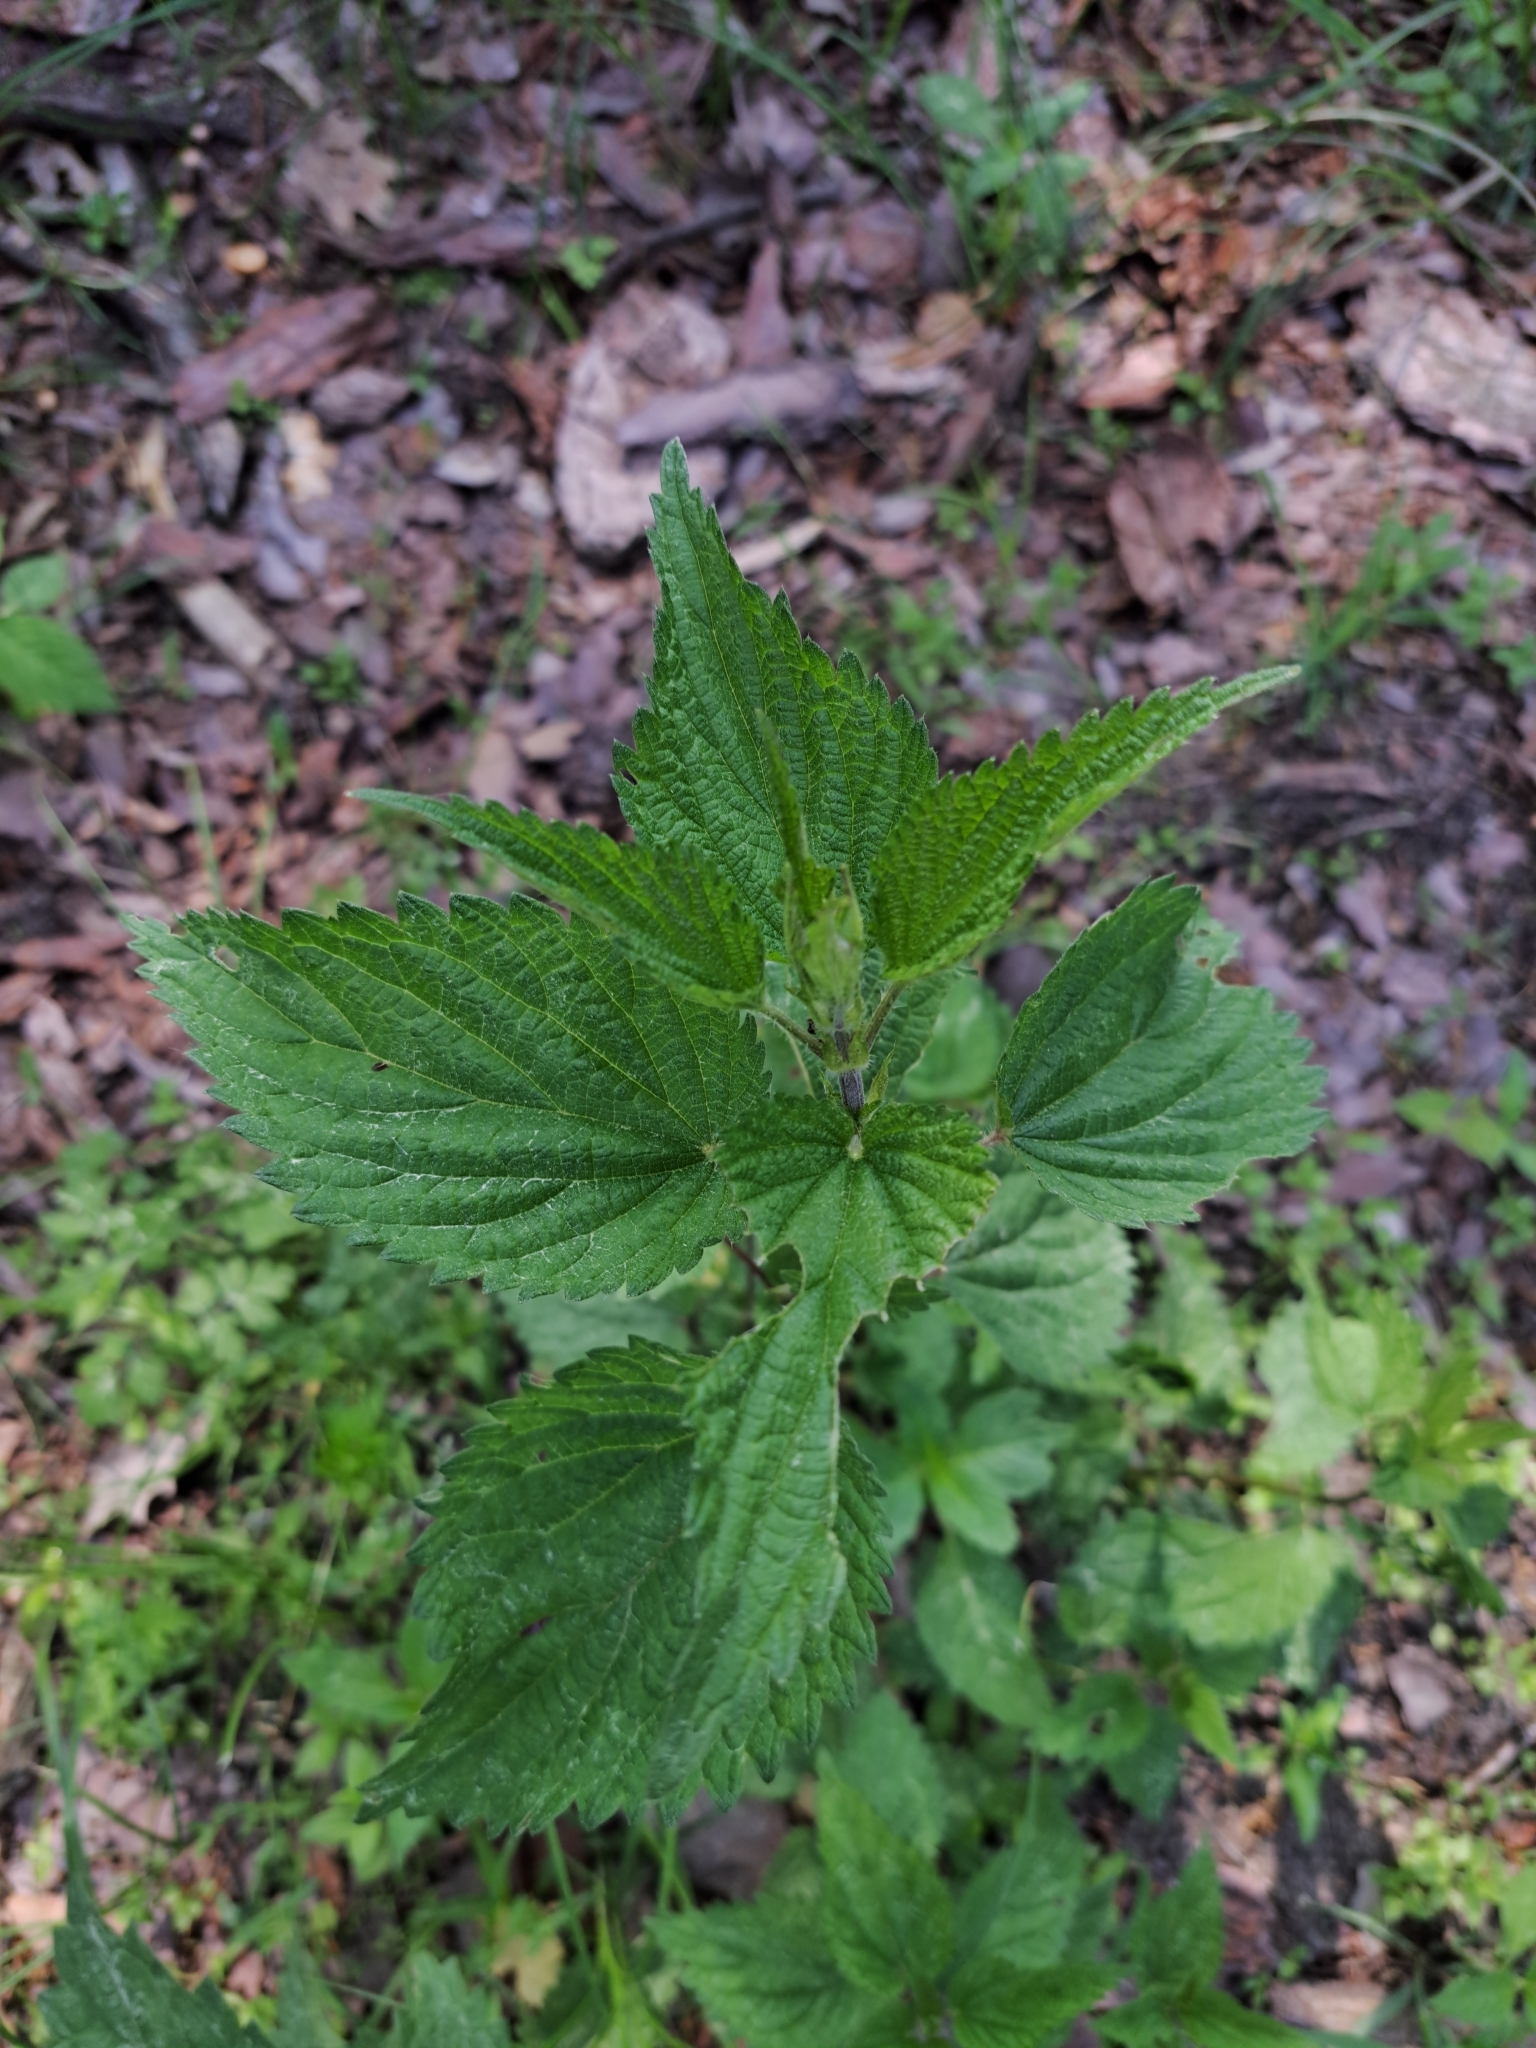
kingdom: Plantae
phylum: Tracheophyta
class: Magnoliopsida
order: Rosales
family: Urticaceae
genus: Urtica
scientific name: Urtica dioica
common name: Common nettle
